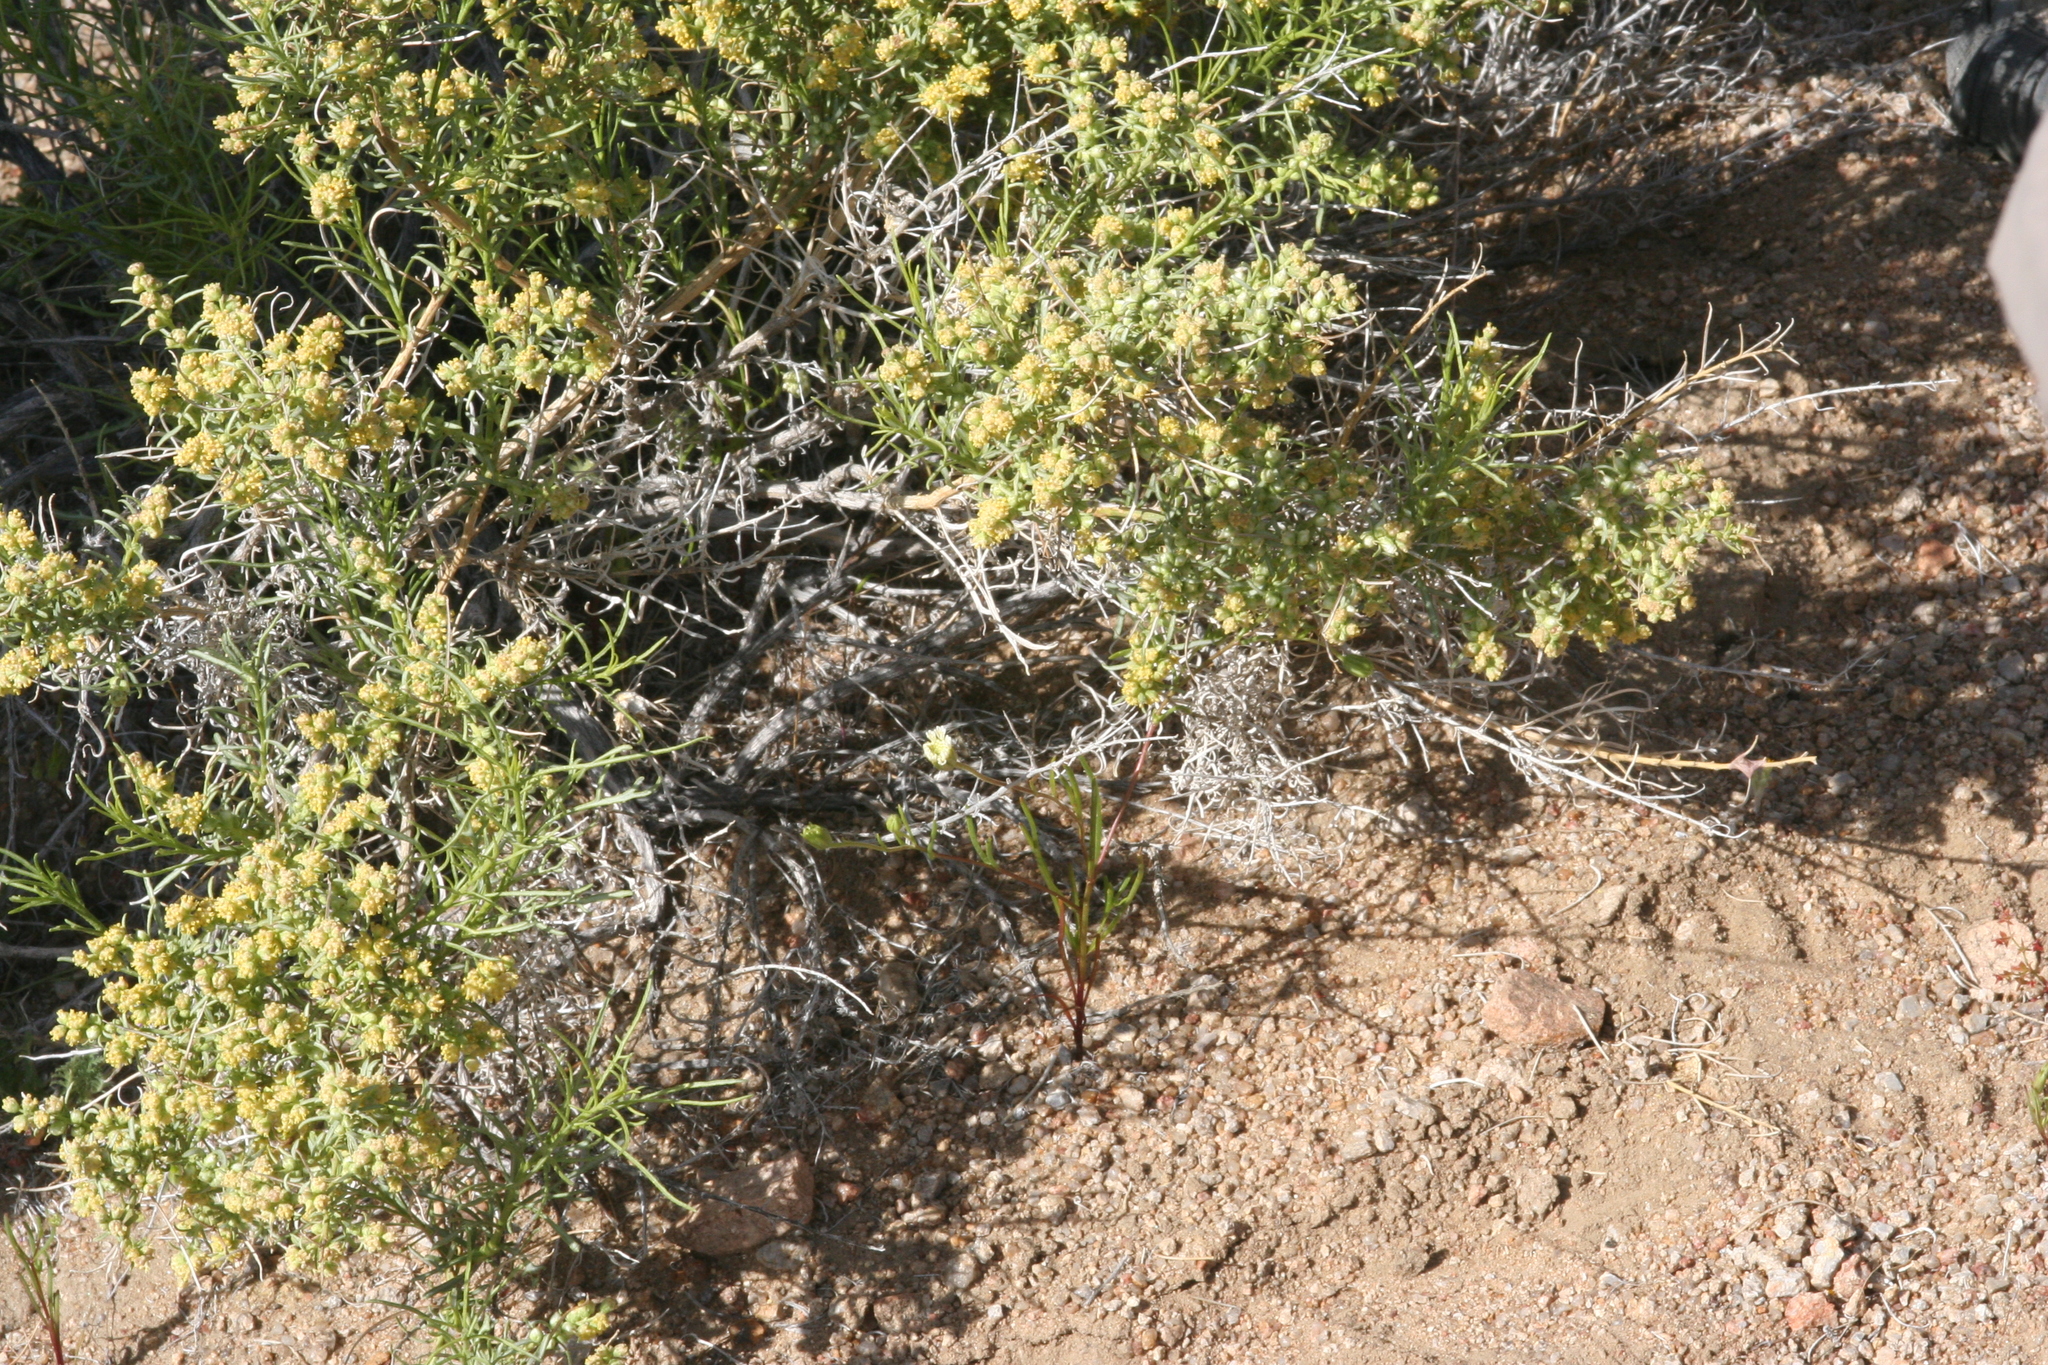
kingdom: Plantae
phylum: Tracheophyta
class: Magnoliopsida
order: Asterales
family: Asteraceae
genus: Ambrosia
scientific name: Ambrosia salsola
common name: Burrobrush
